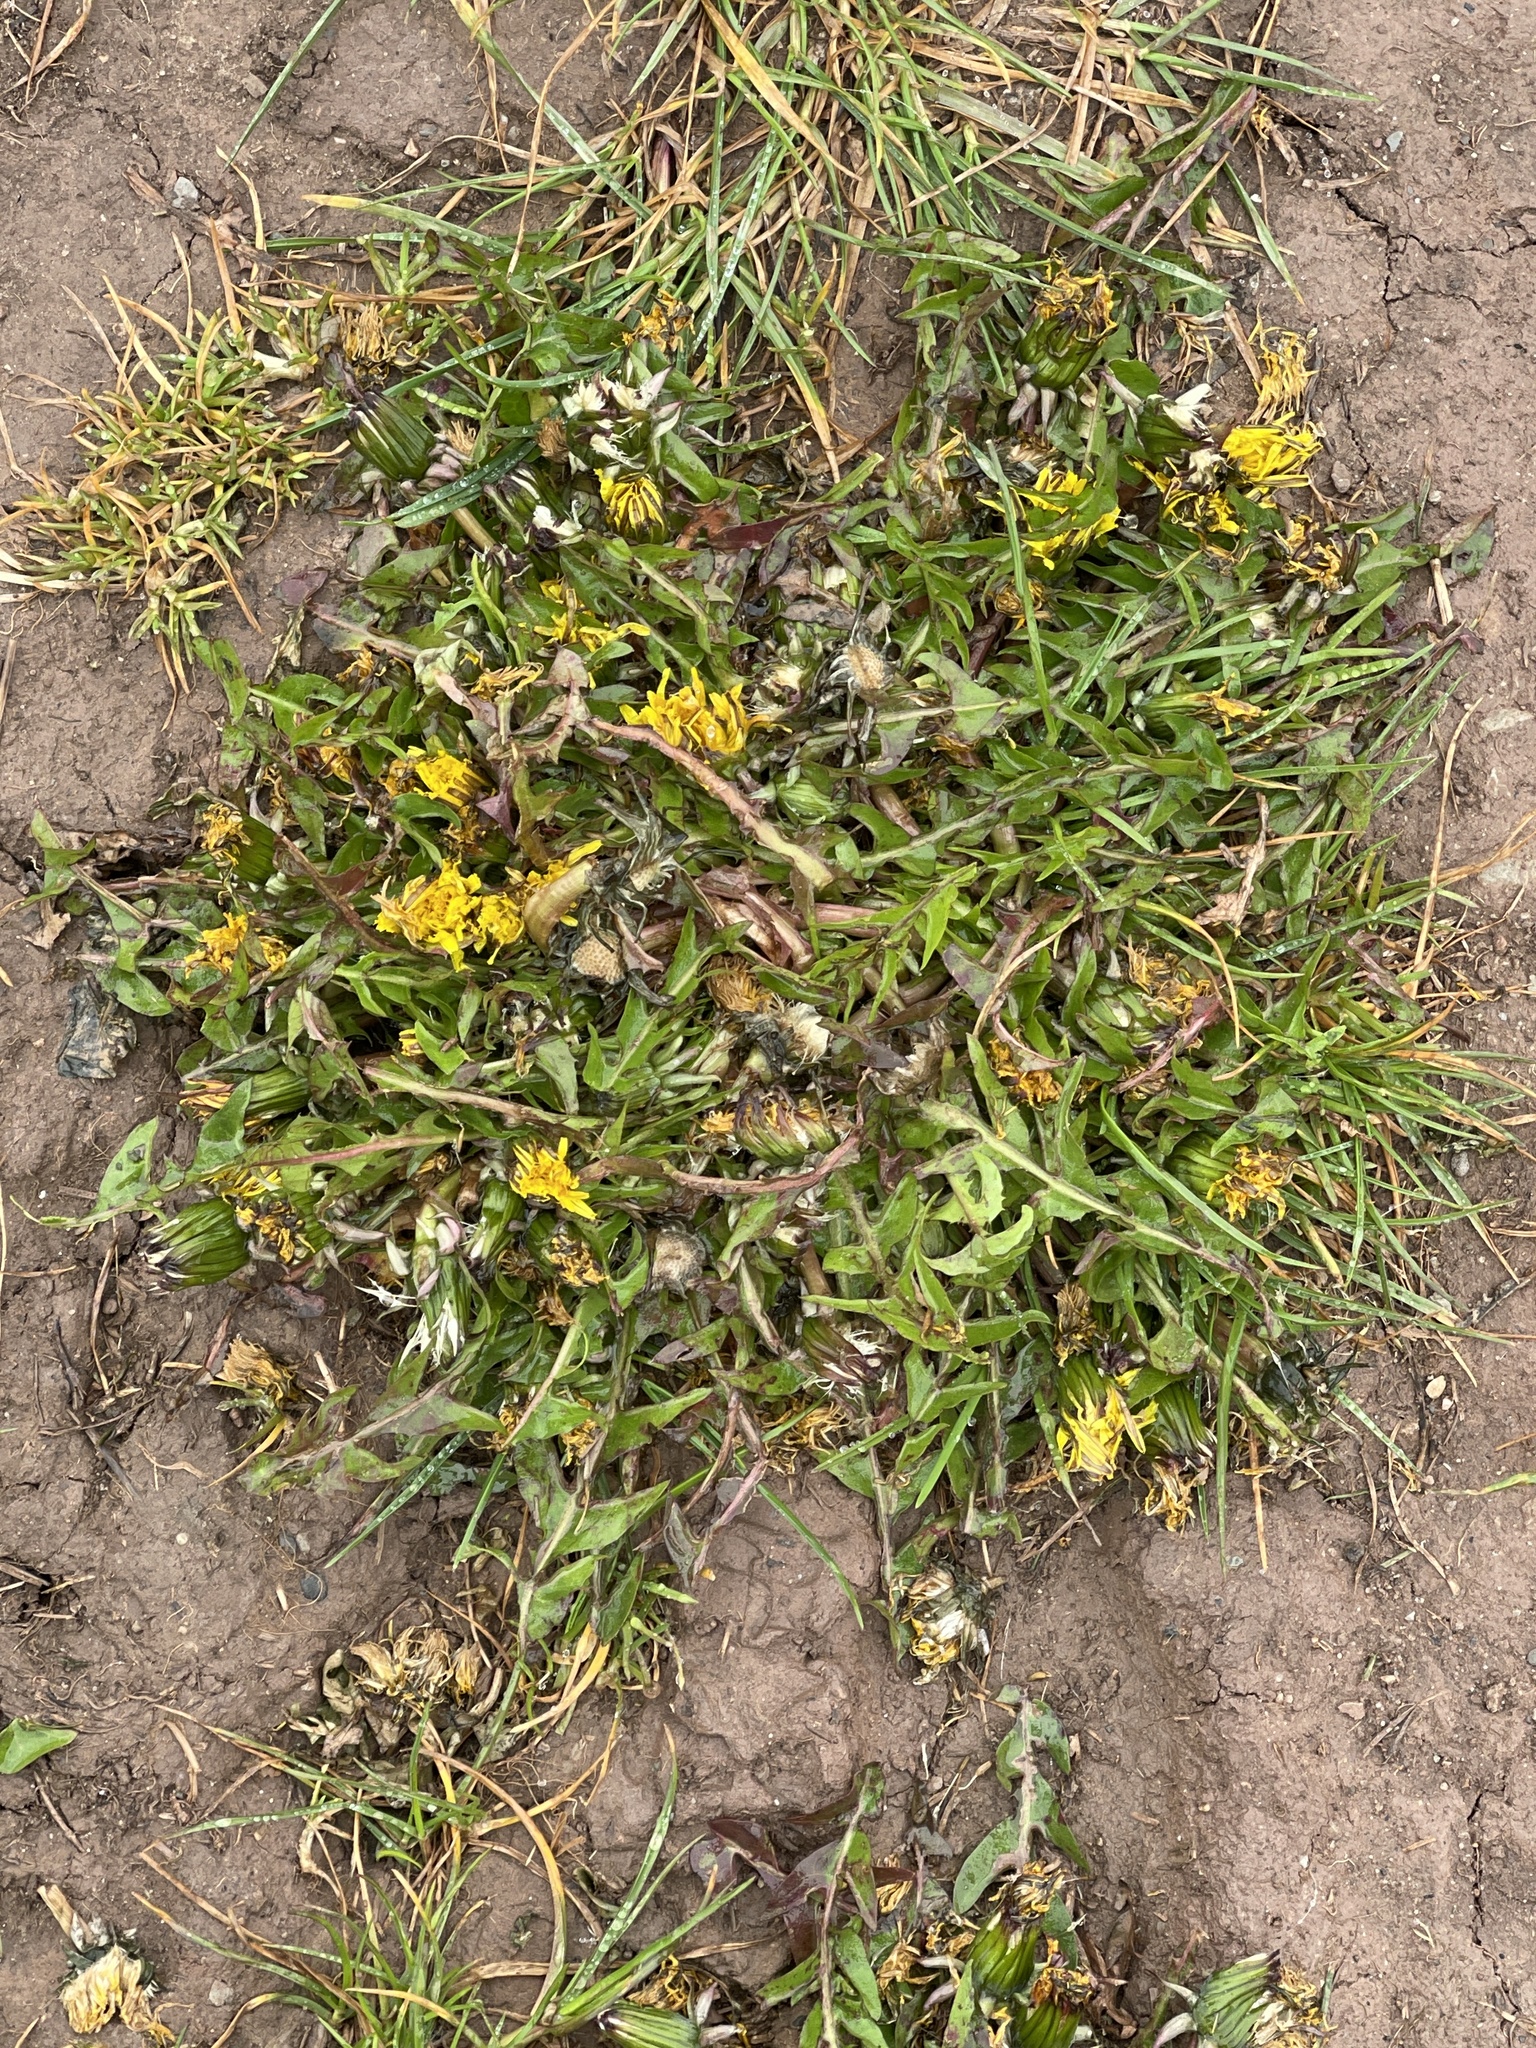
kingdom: Plantae
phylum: Tracheophyta
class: Magnoliopsida
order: Asterales
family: Asteraceae
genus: Taraxacum
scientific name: Taraxacum officinale
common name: Common dandelion
